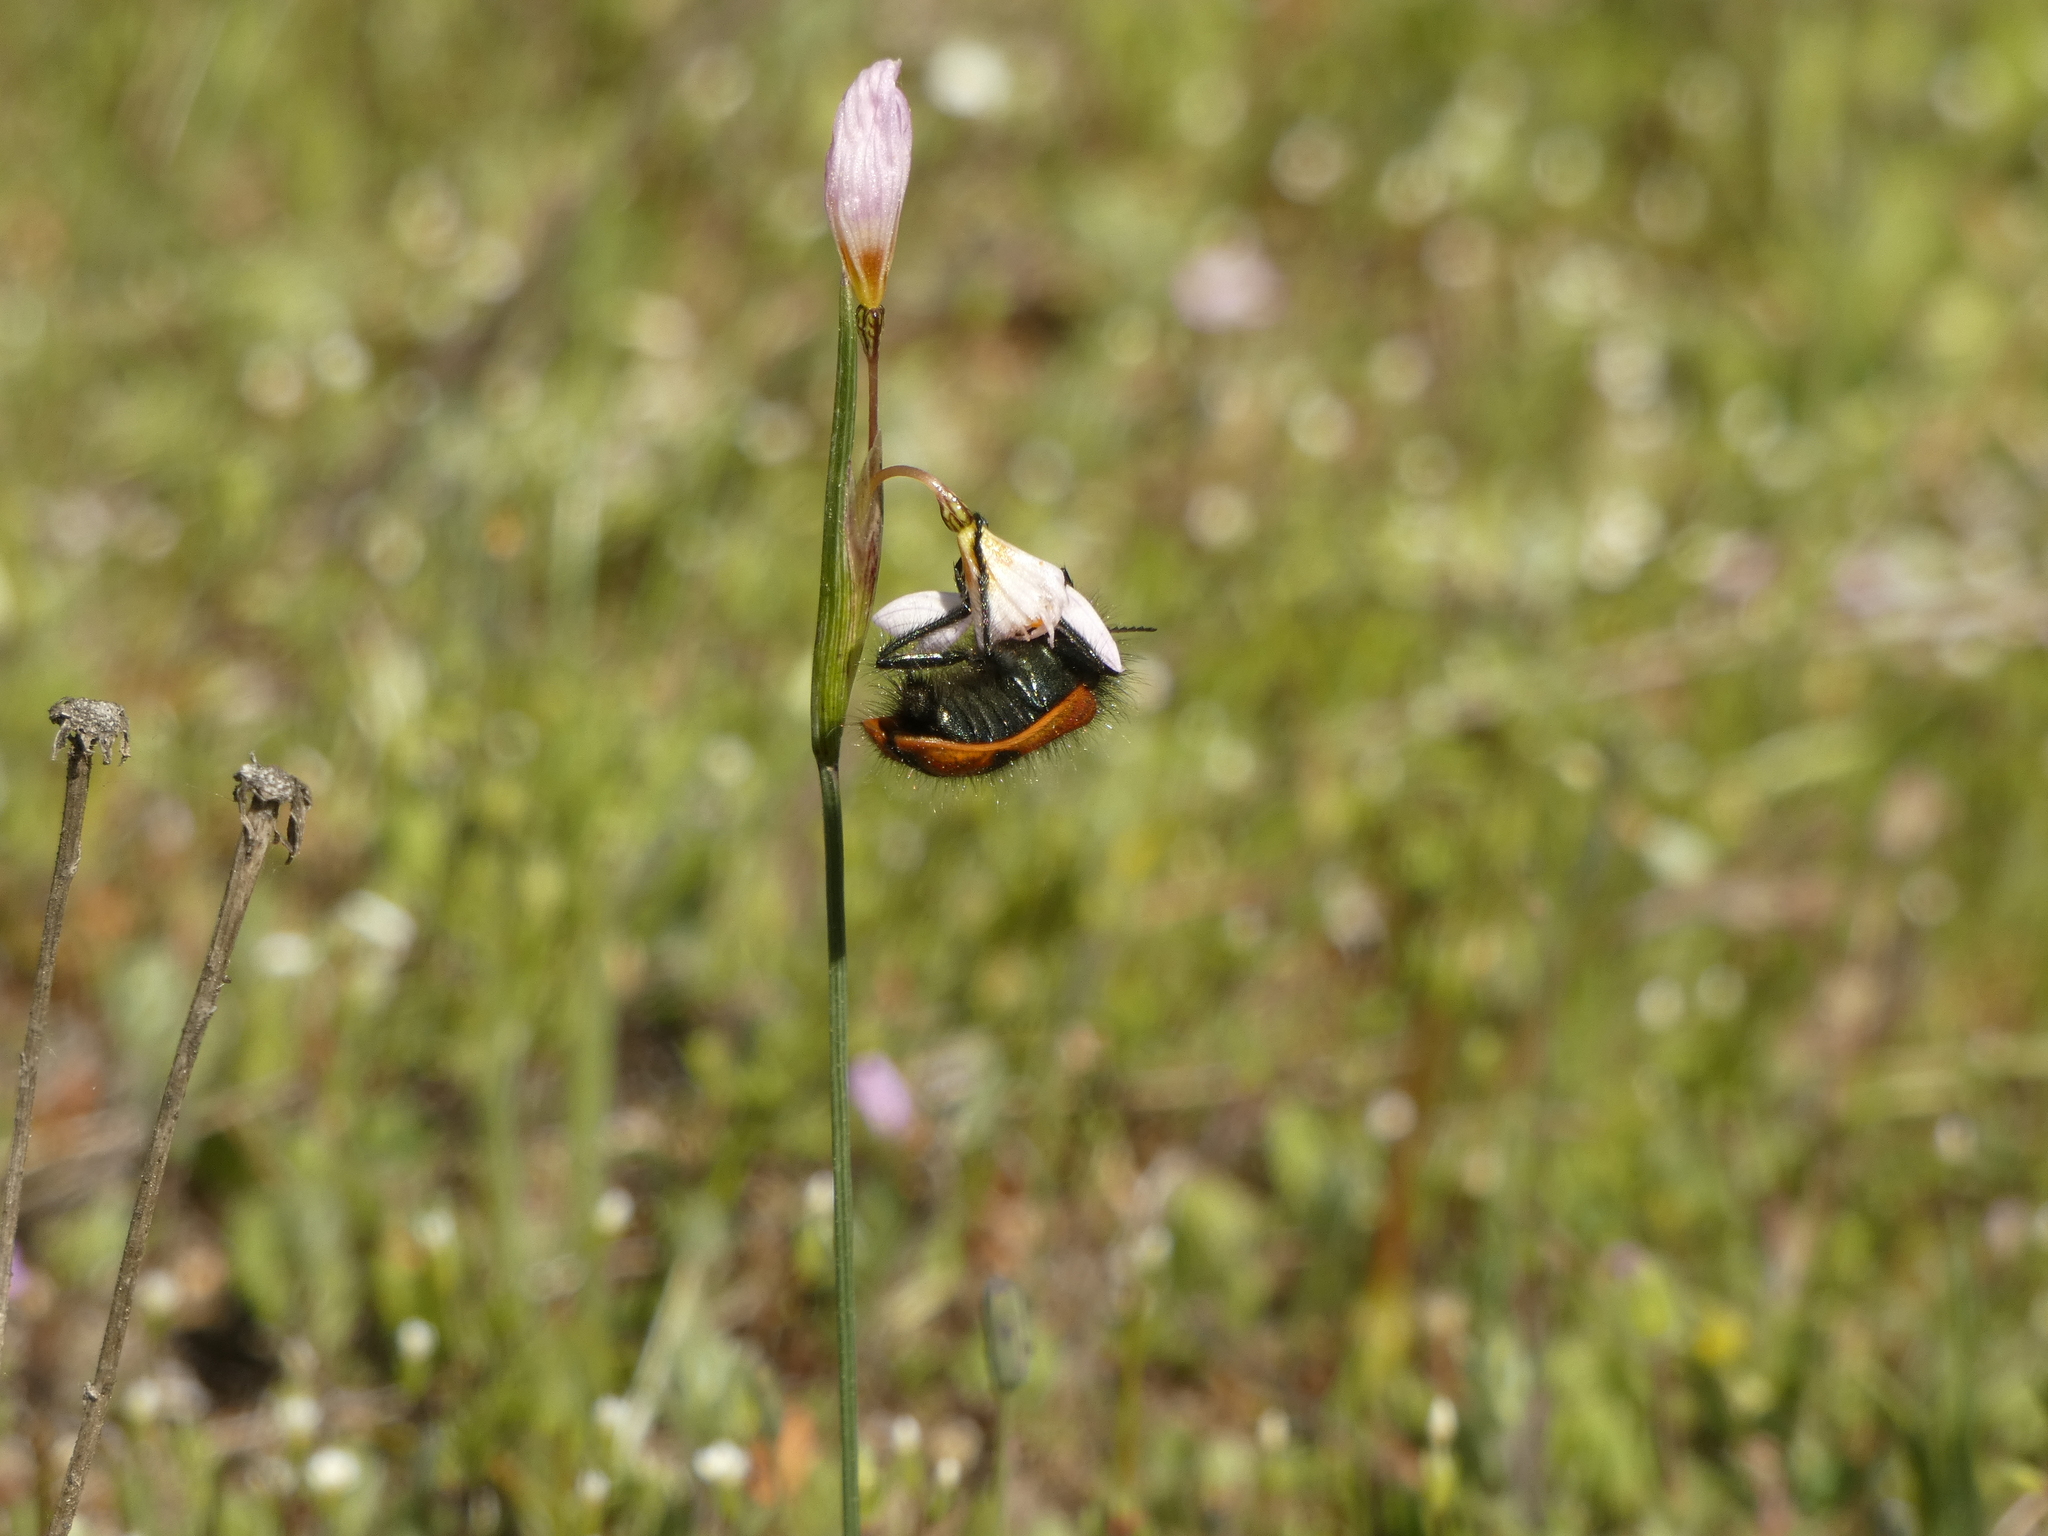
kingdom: Animalia
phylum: Arthropoda
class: Insecta
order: Coleoptera
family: Melyridae
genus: Astylus
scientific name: Astylus
